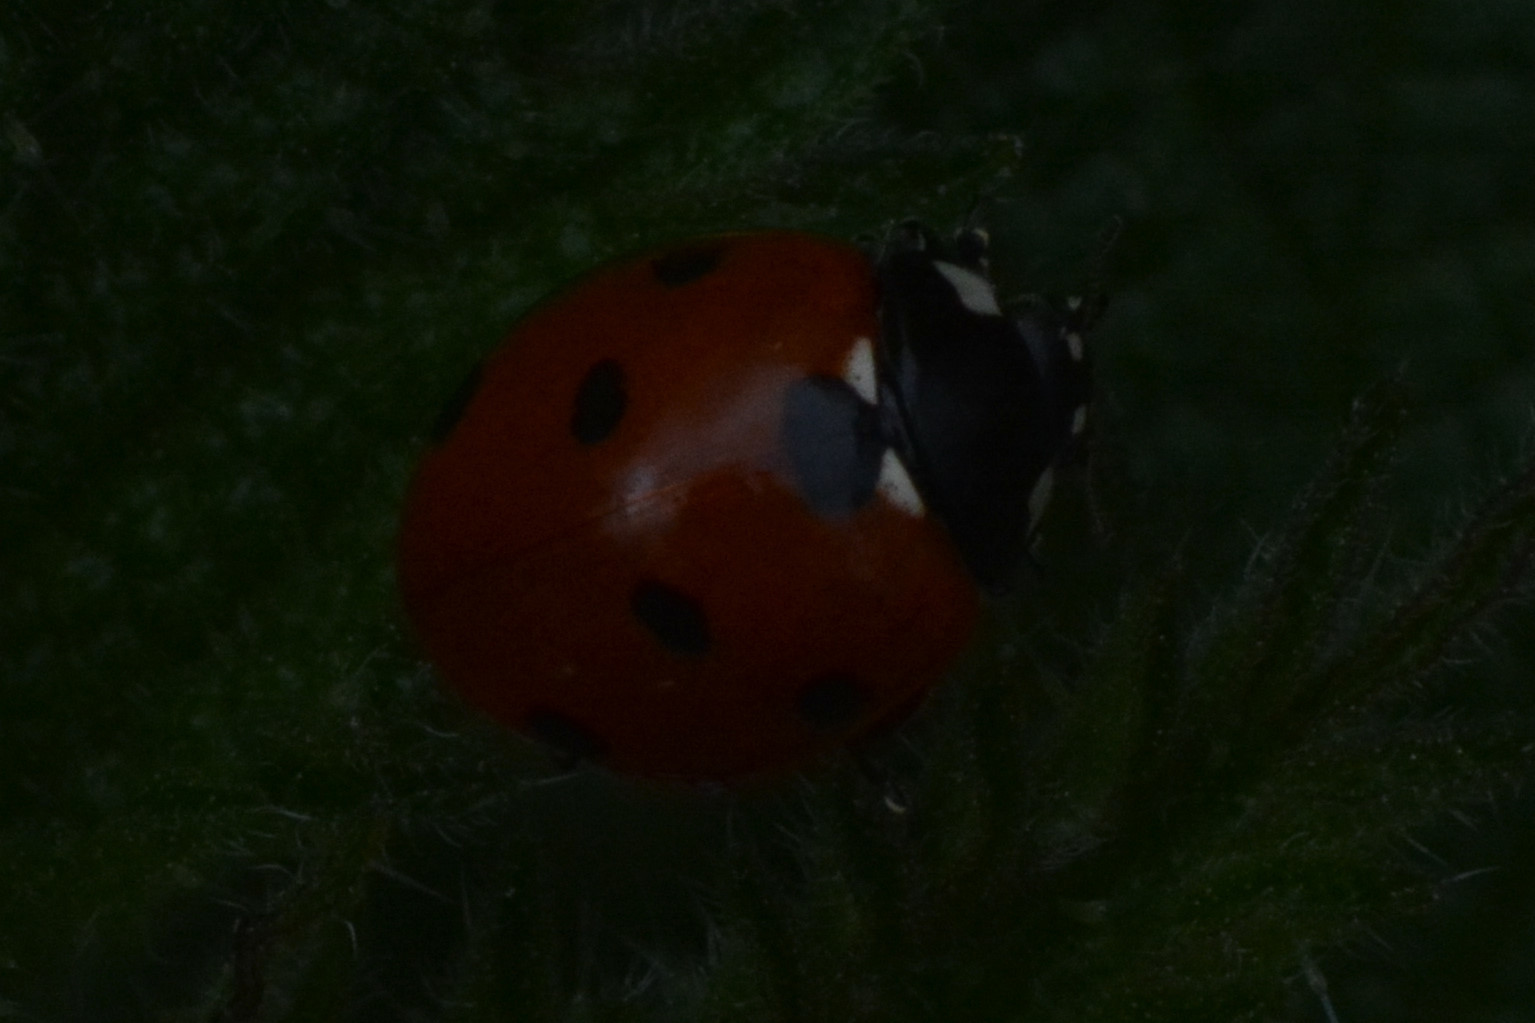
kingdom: Animalia
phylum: Arthropoda
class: Insecta
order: Coleoptera
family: Coccinellidae
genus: Coccinella
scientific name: Coccinella septempunctata
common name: Sevenspotted lady beetle
